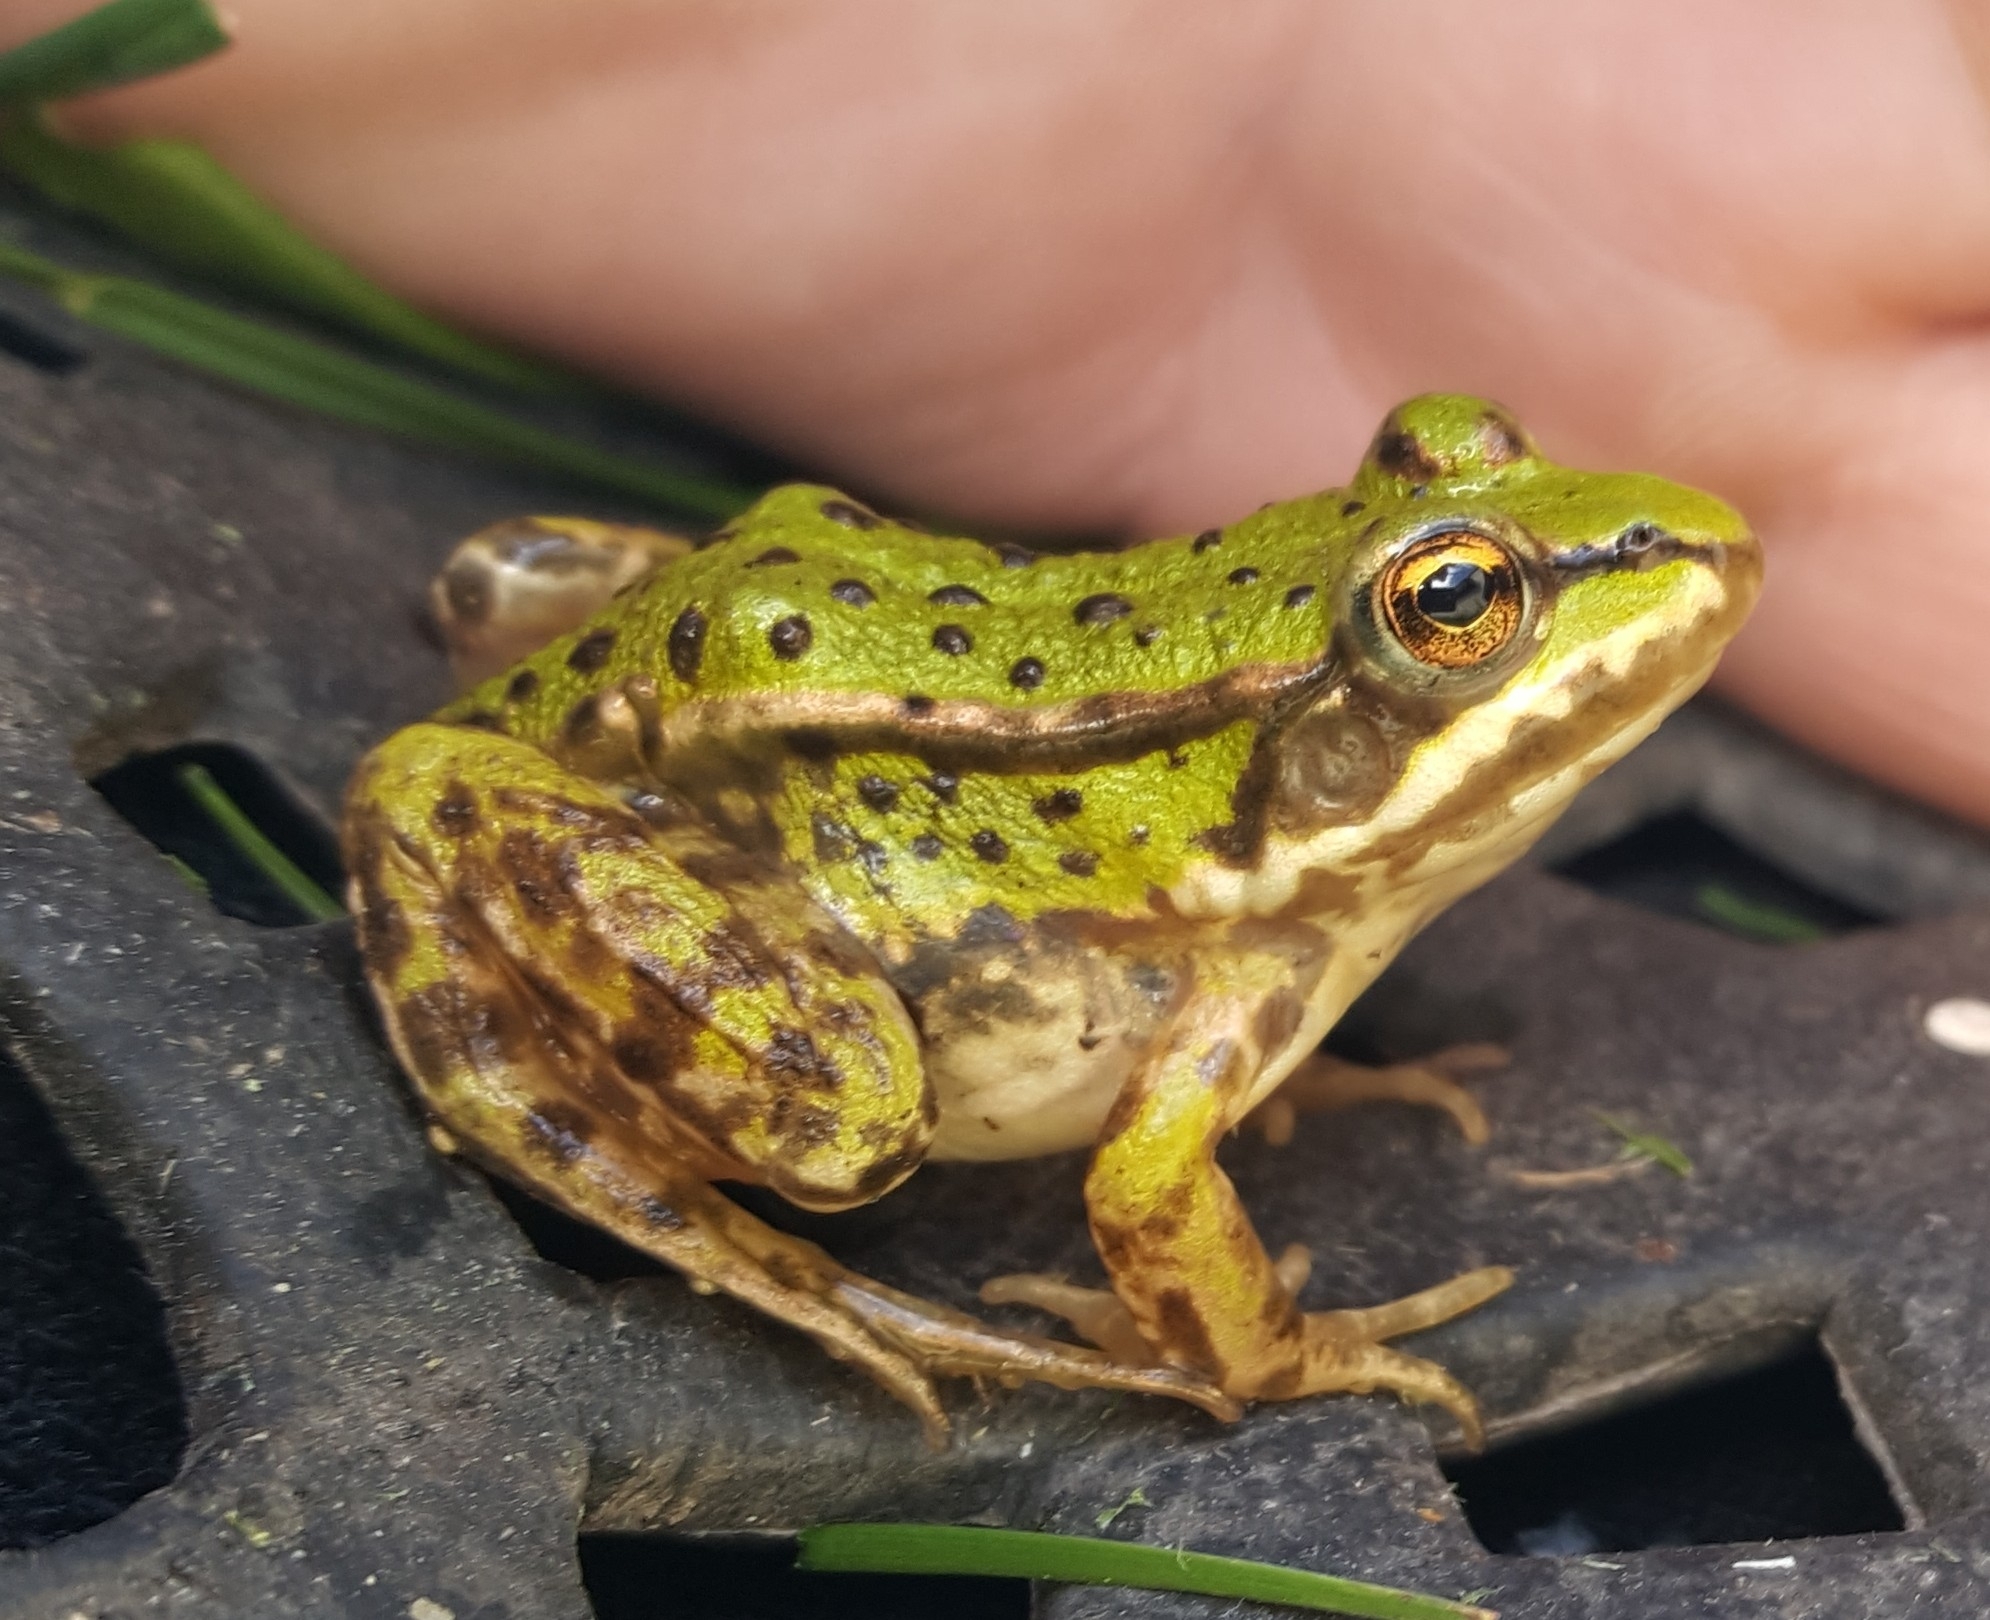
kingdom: Animalia
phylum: Chordata
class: Amphibia
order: Anura
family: Ranidae
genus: Pelophylax
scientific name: Pelophylax lessonae
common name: Pool frog
